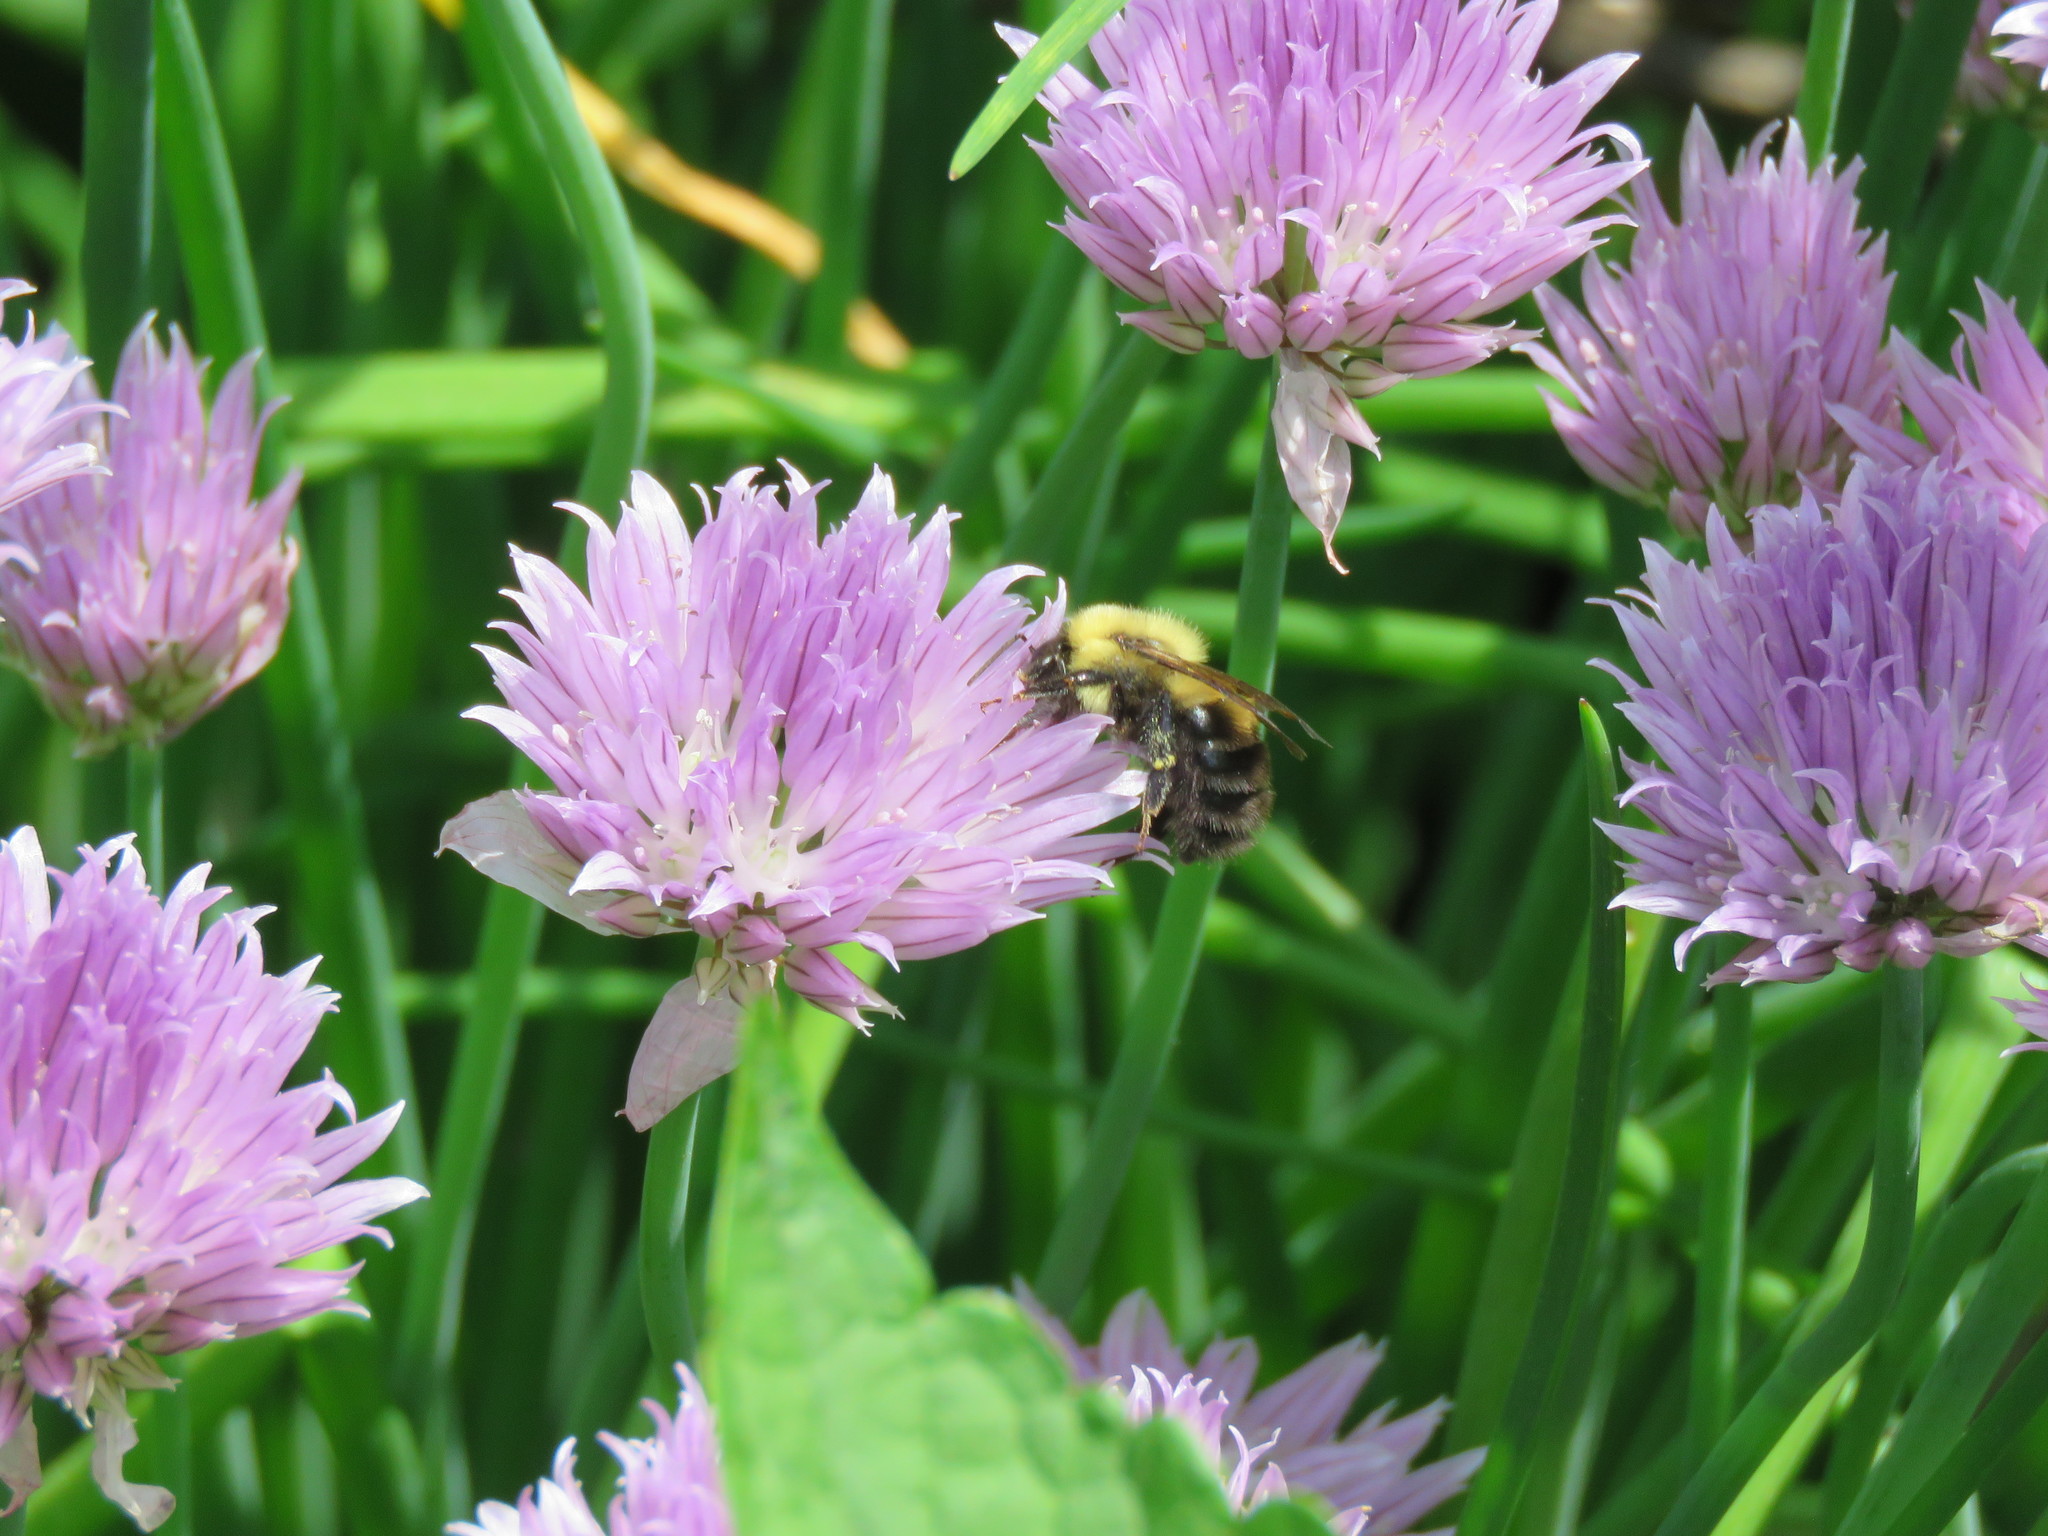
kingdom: Animalia
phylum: Arthropoda
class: Insecta
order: Hymenoptera
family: Apidae
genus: Bombus
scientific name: Bombus bimaculatus
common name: Two-spotted bumble bee
